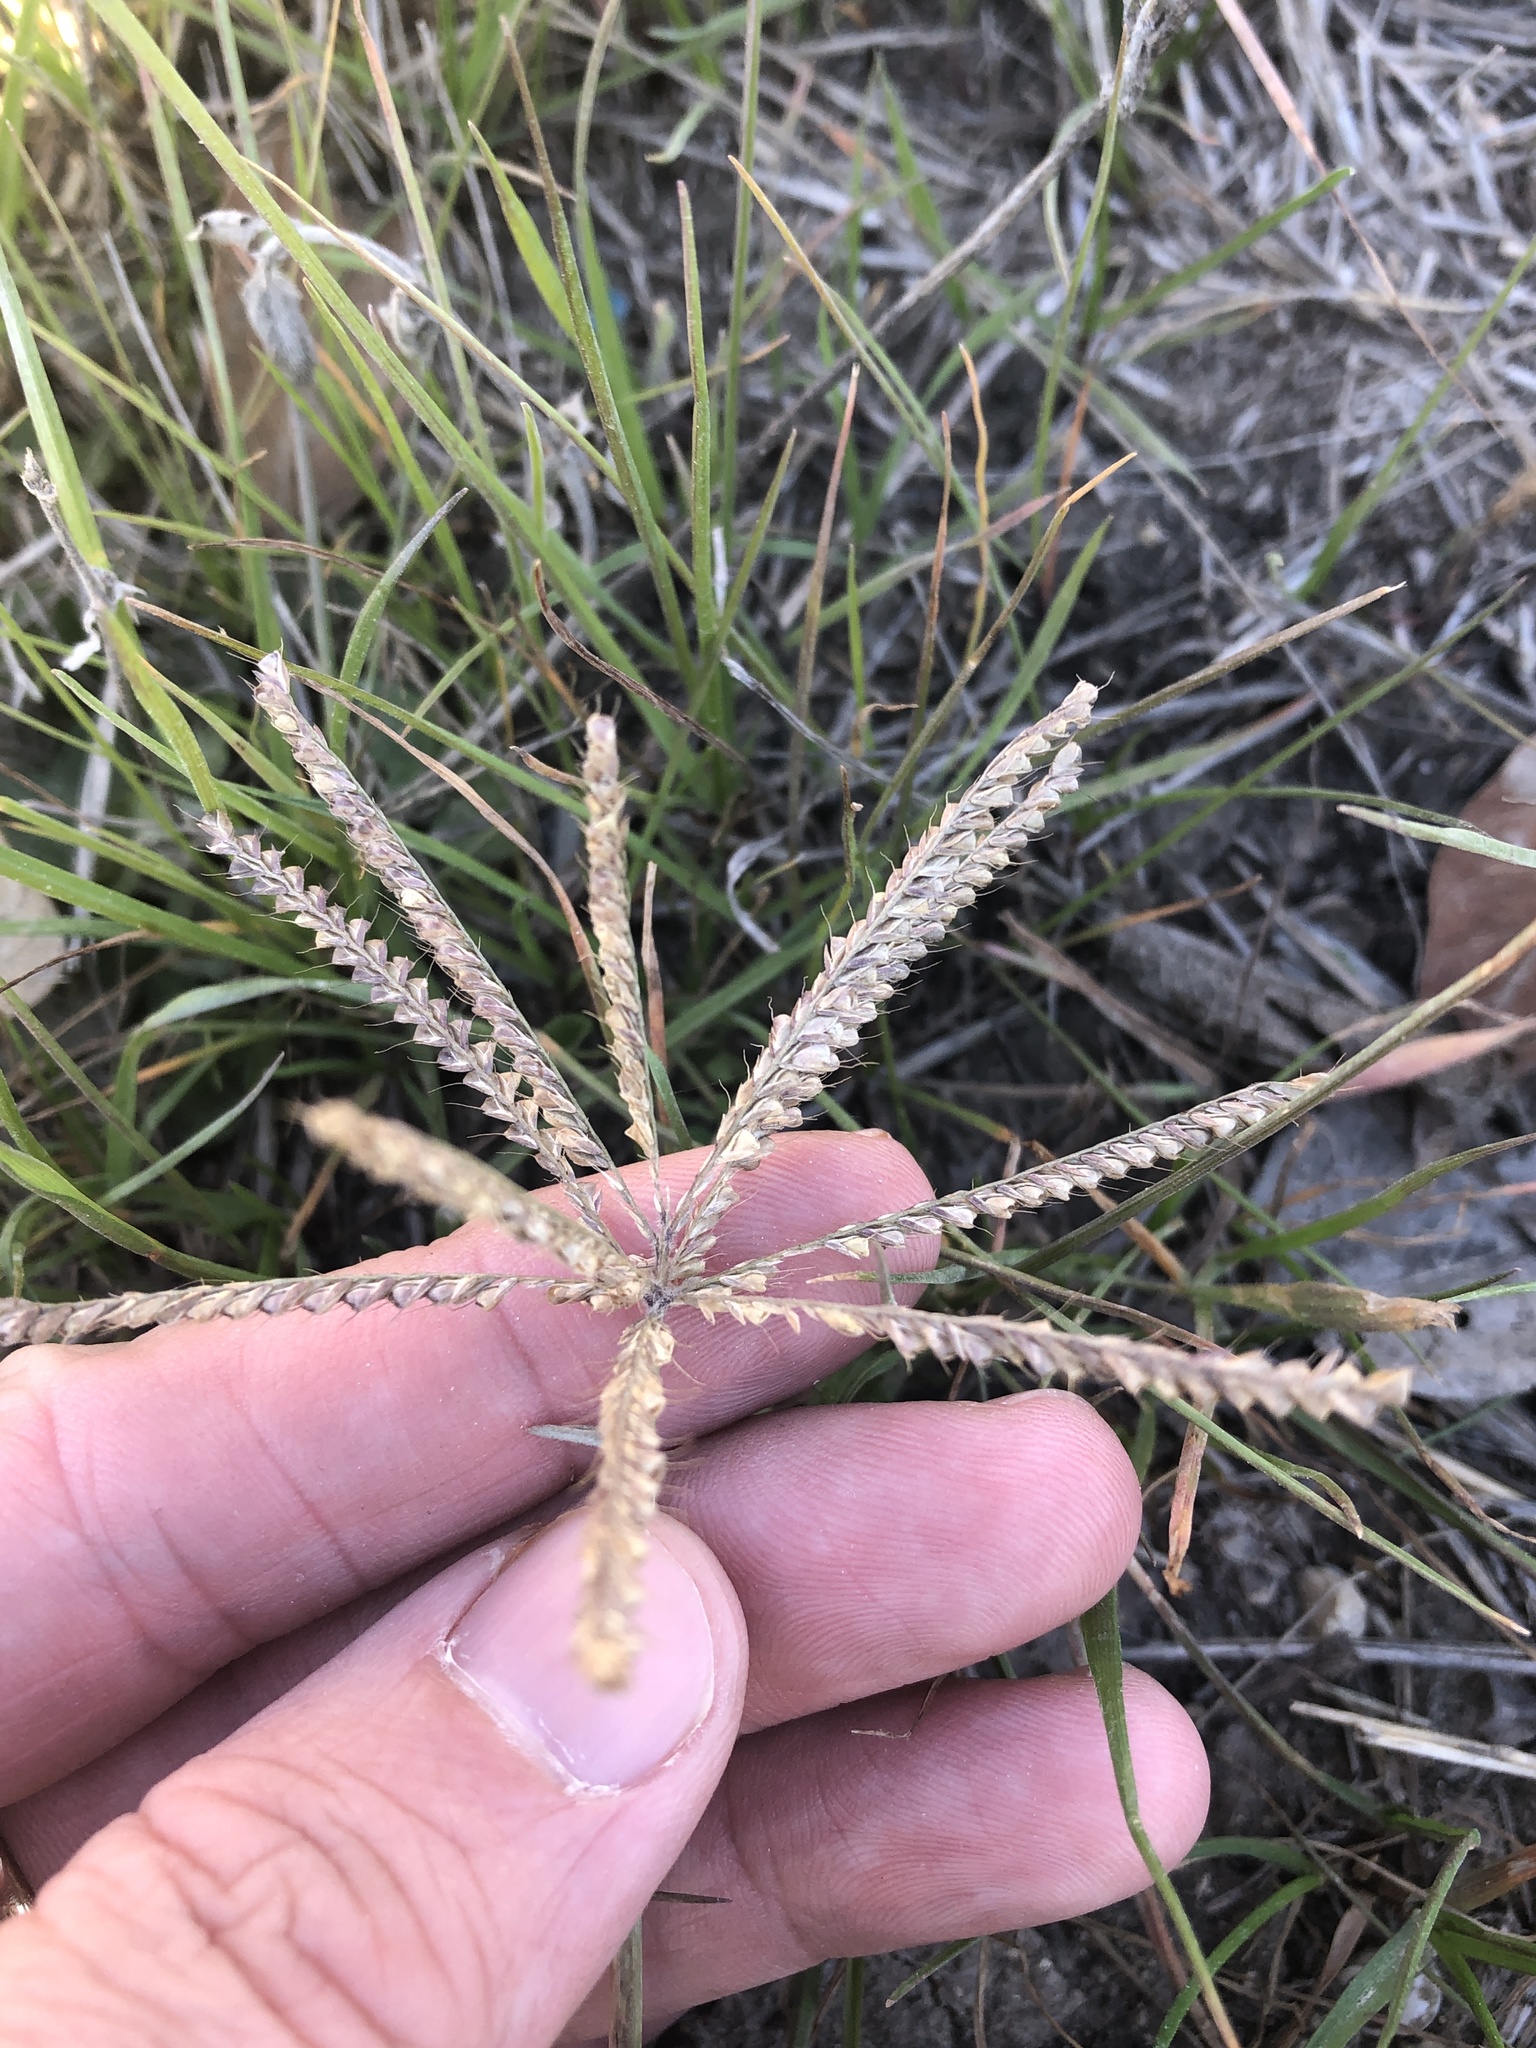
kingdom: Plantae
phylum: Tracheophyta
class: Liliopsida
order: Poales
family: Poaceae
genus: Chloris
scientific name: Chloris cucullata
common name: Hooded windmill grass
